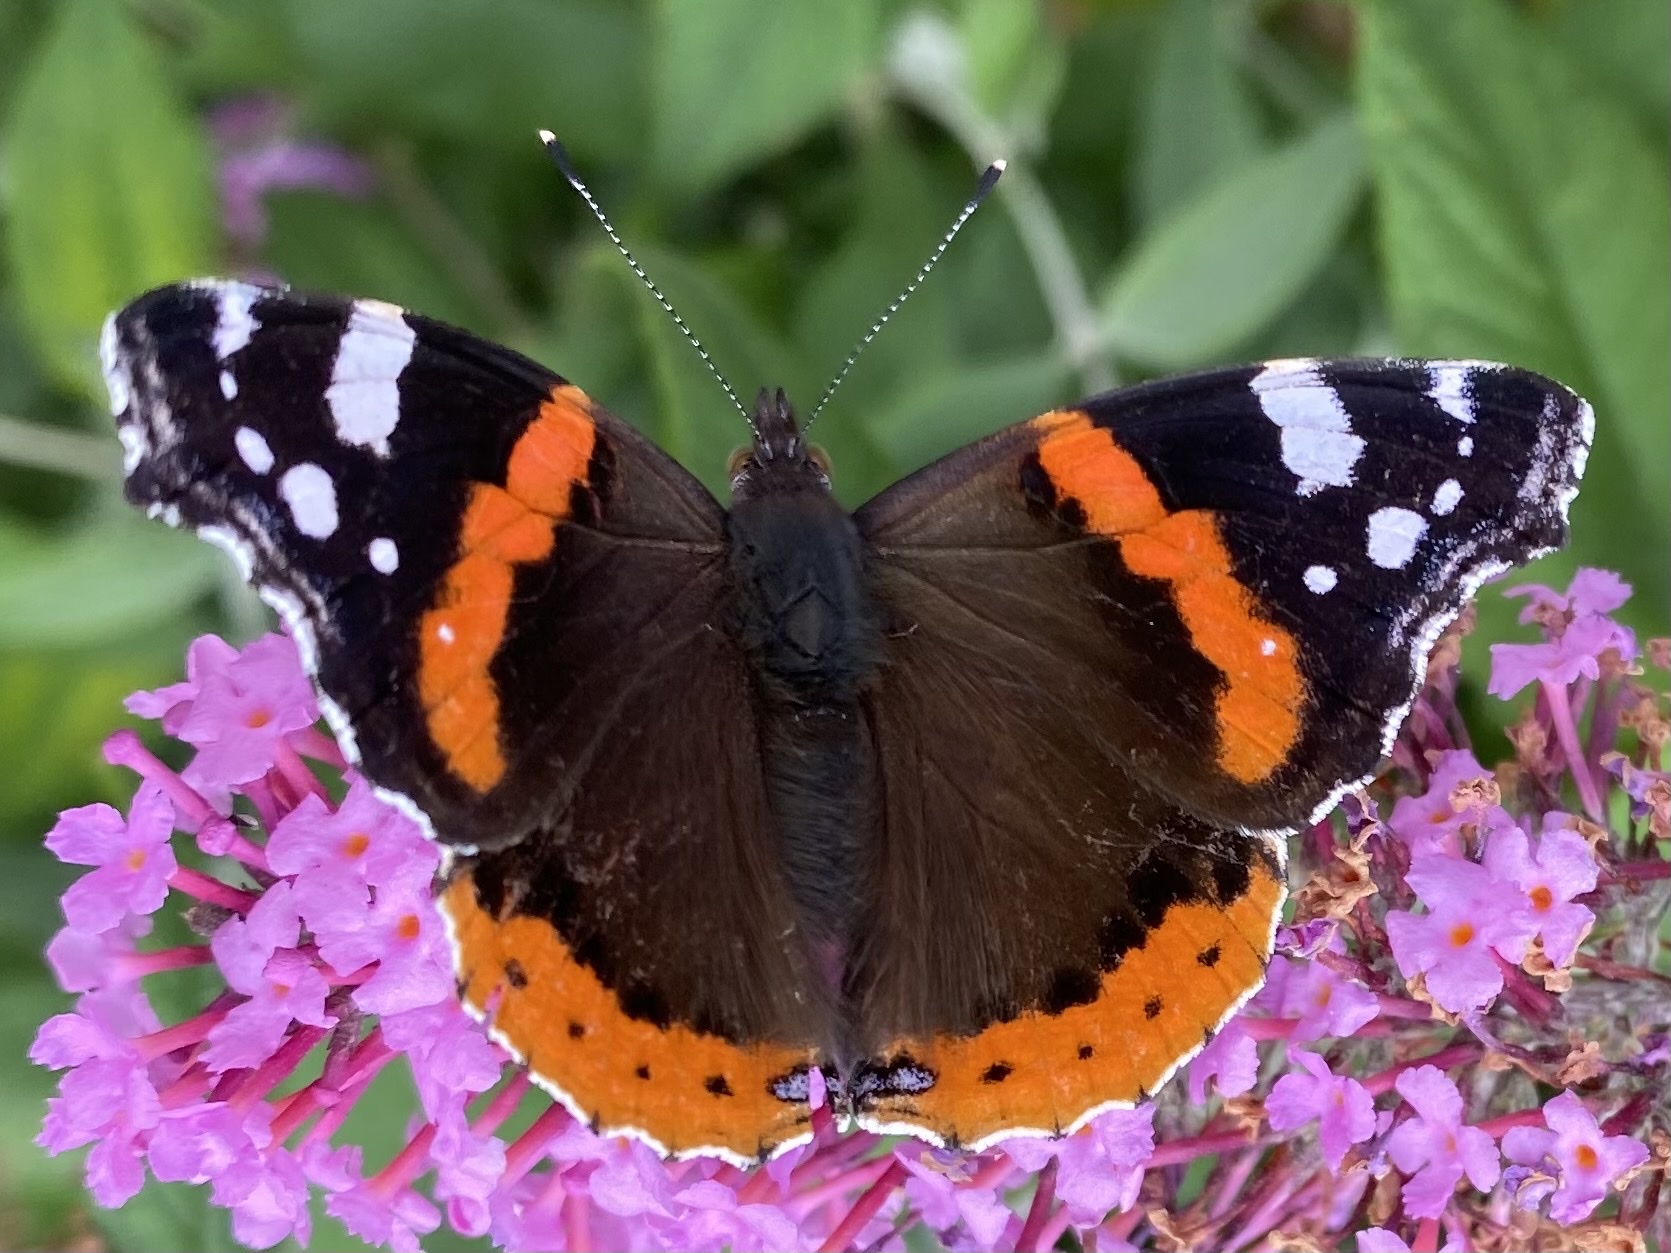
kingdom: Animalia
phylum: Arthropoda
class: Insecta
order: Lepidoptera
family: Nymphalidae
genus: Vanessa
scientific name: Vanessa atalanta
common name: Red admiral
